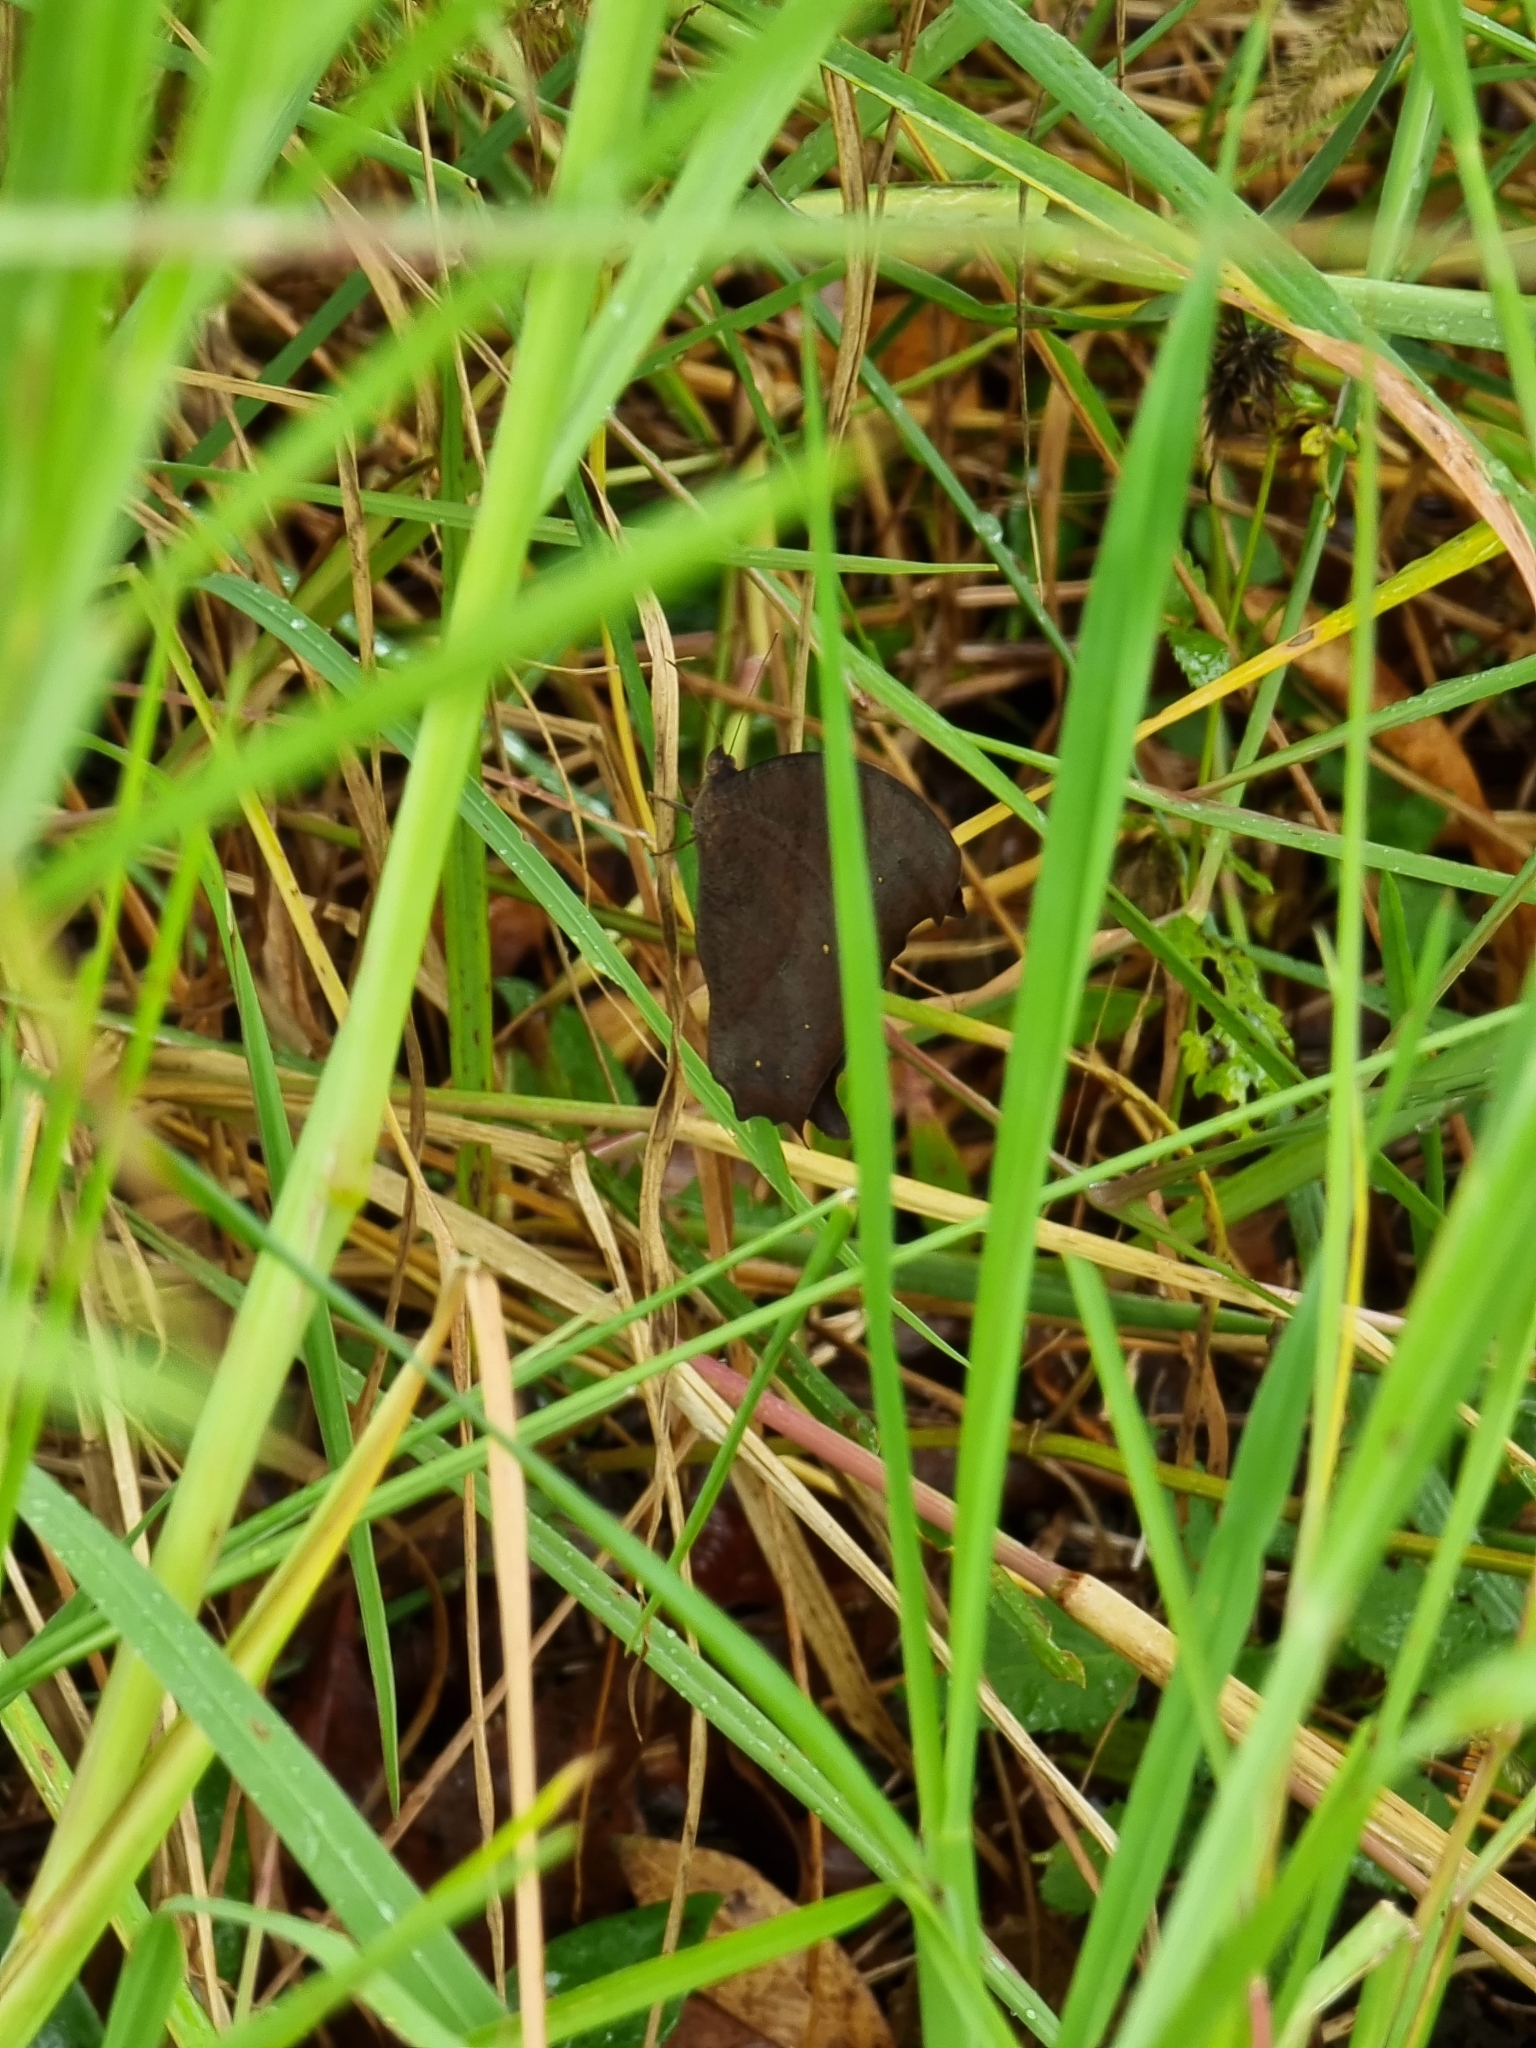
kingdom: Animalia
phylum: Arthropoda
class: Insecta
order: Lepidoptera
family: Nymphalidae
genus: Melanitis
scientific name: Melanitis leda
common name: Twilight brown
